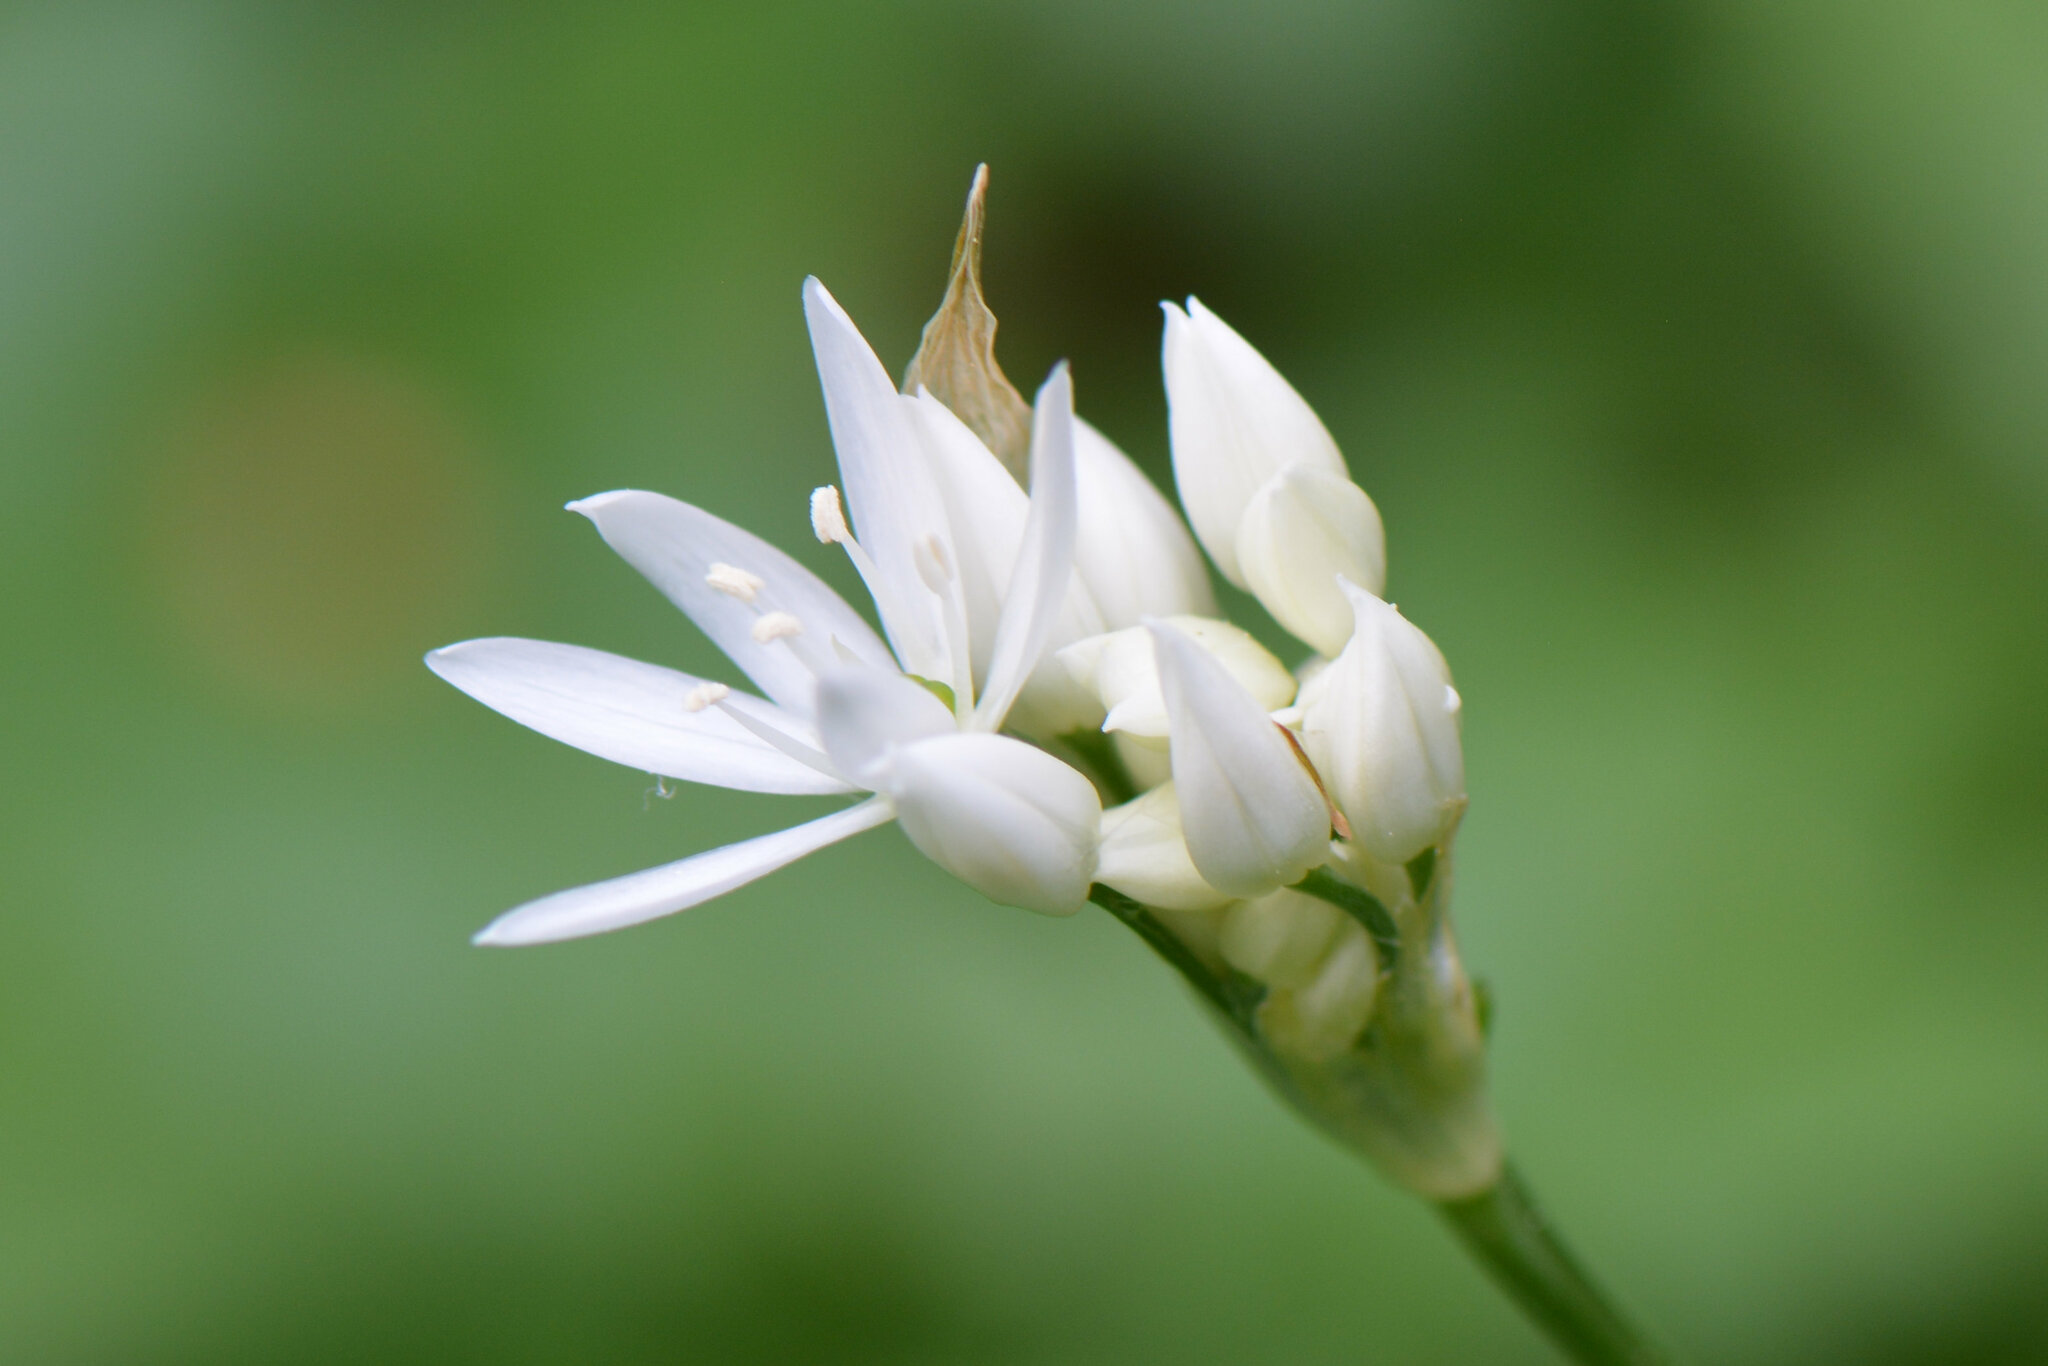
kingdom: Plantae
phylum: Tracheophyta
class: Liliopsida
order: Asparagales
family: Amaryllidaceae
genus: Allium
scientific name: Allium ursinum
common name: Ramsons
